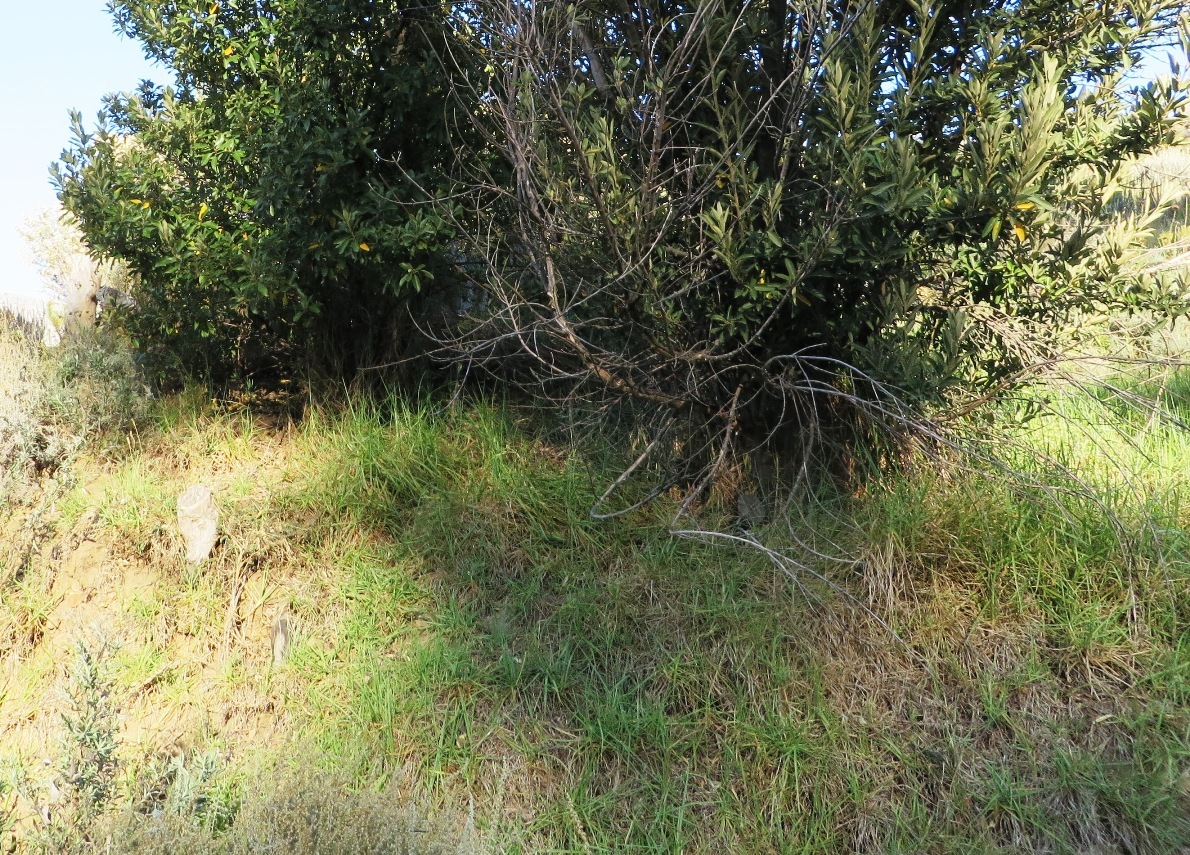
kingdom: Plantae
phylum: Tracheophyta
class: Liliopsida
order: Poales
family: Poaceae
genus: Cenchrus
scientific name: Cenchrus clandestinus
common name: Kikuyugrass
